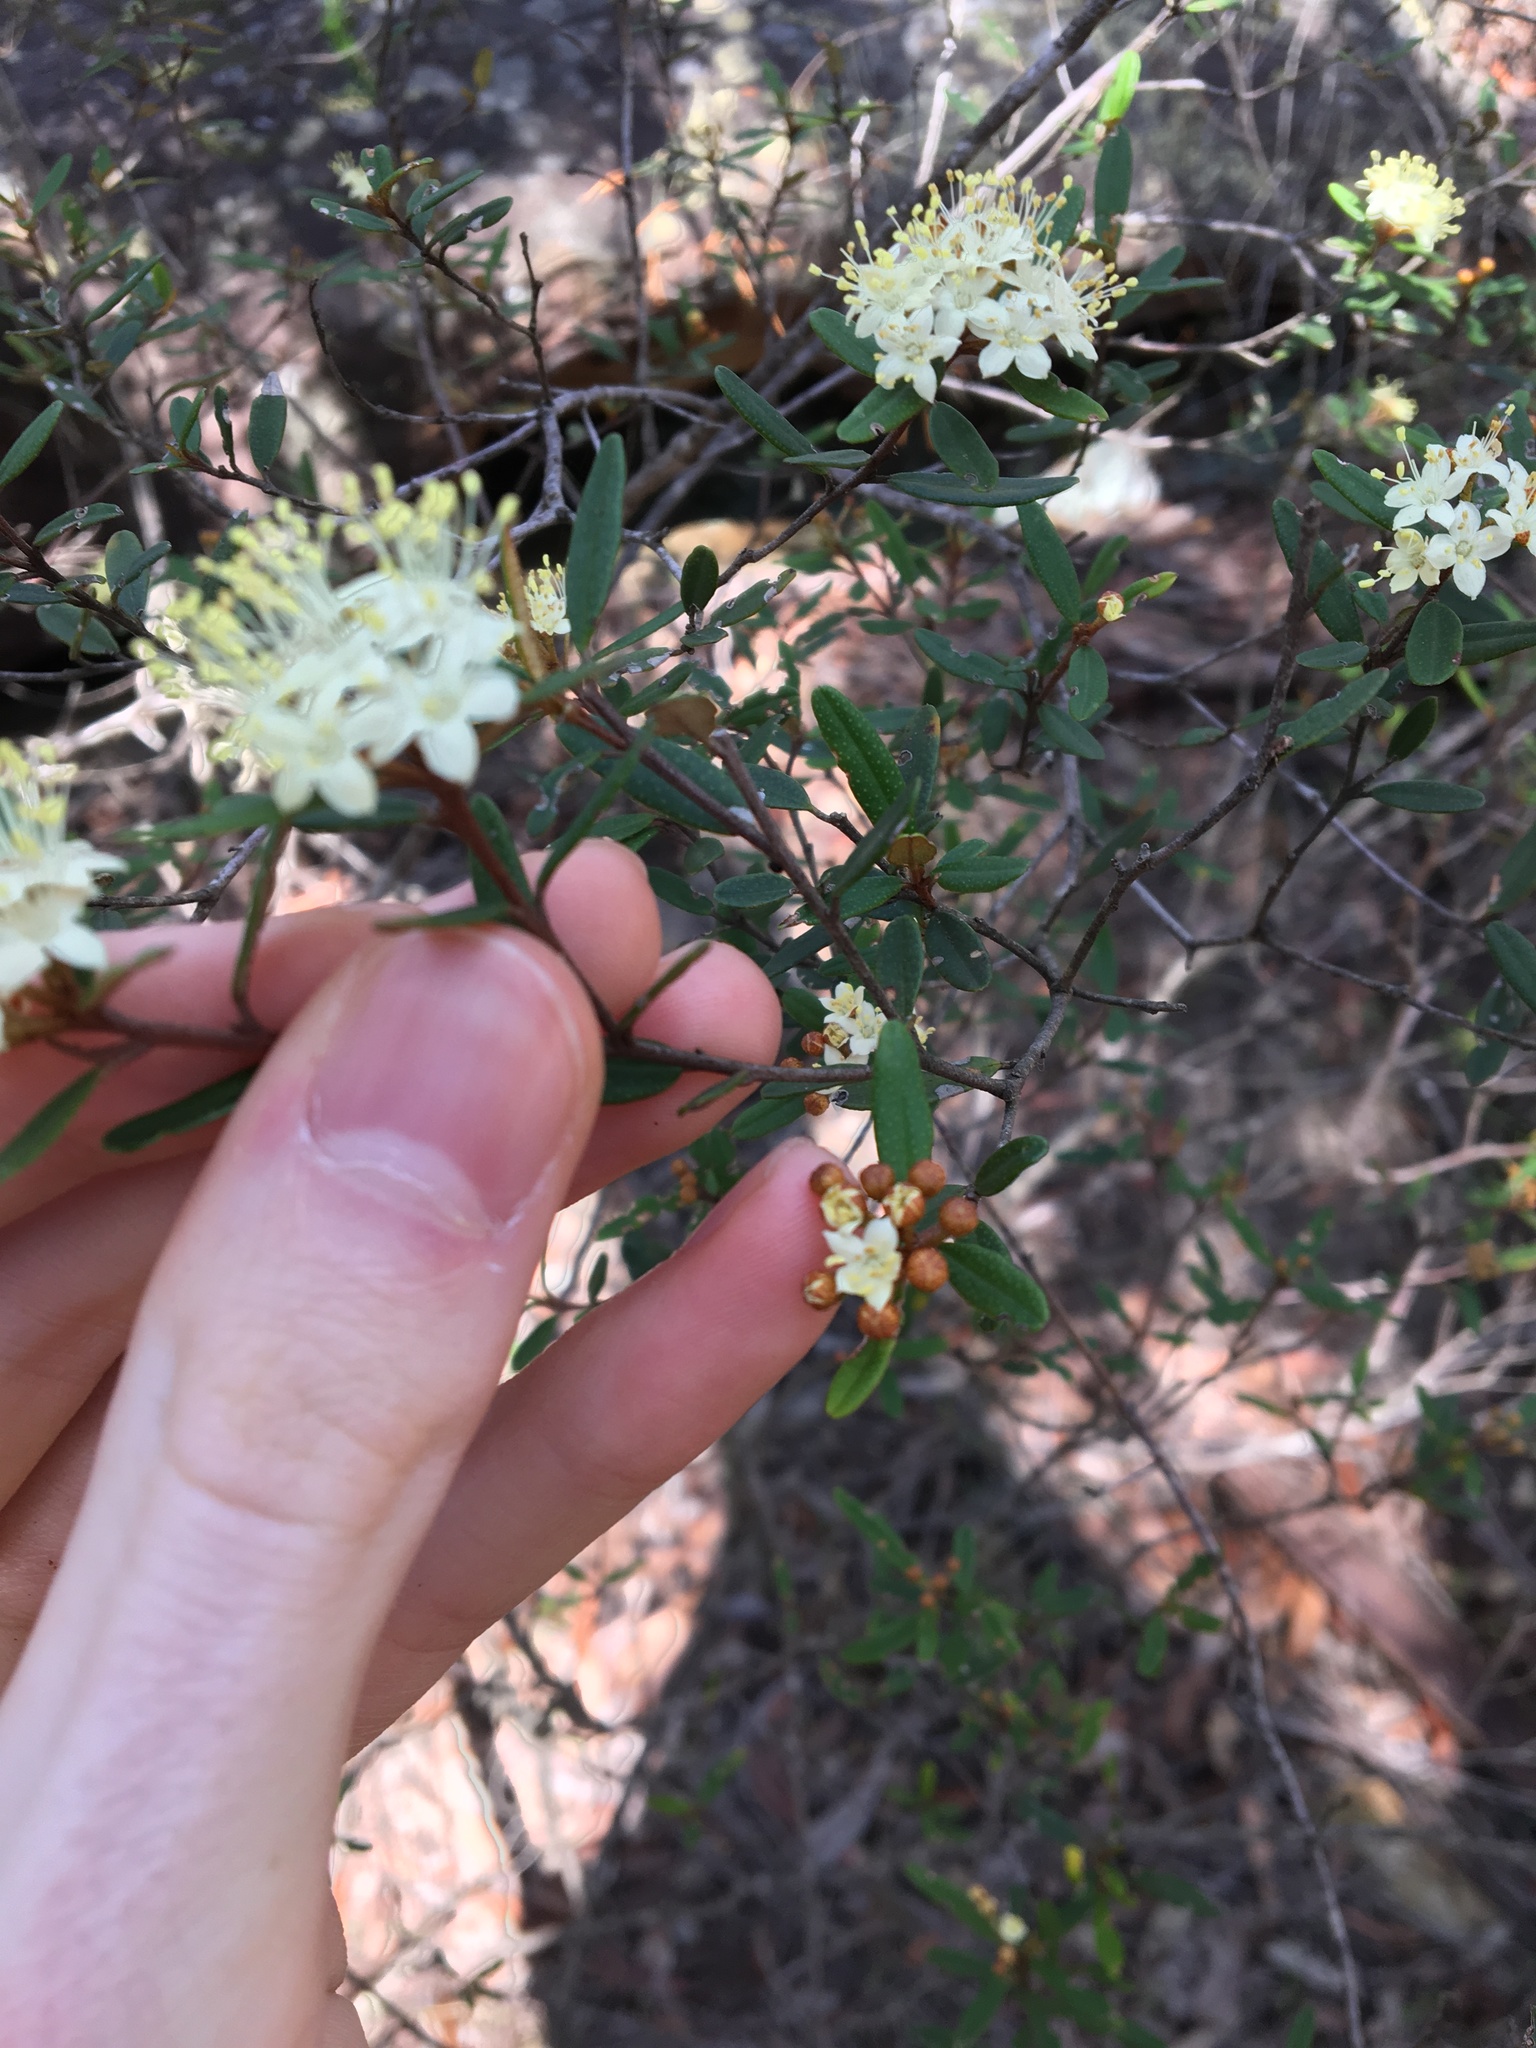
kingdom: Plantae
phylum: Tracheophyta
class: Magnoliopsida
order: Sapindales
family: Rutaceae
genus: Phebalium
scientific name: Phebalium squamulosum
